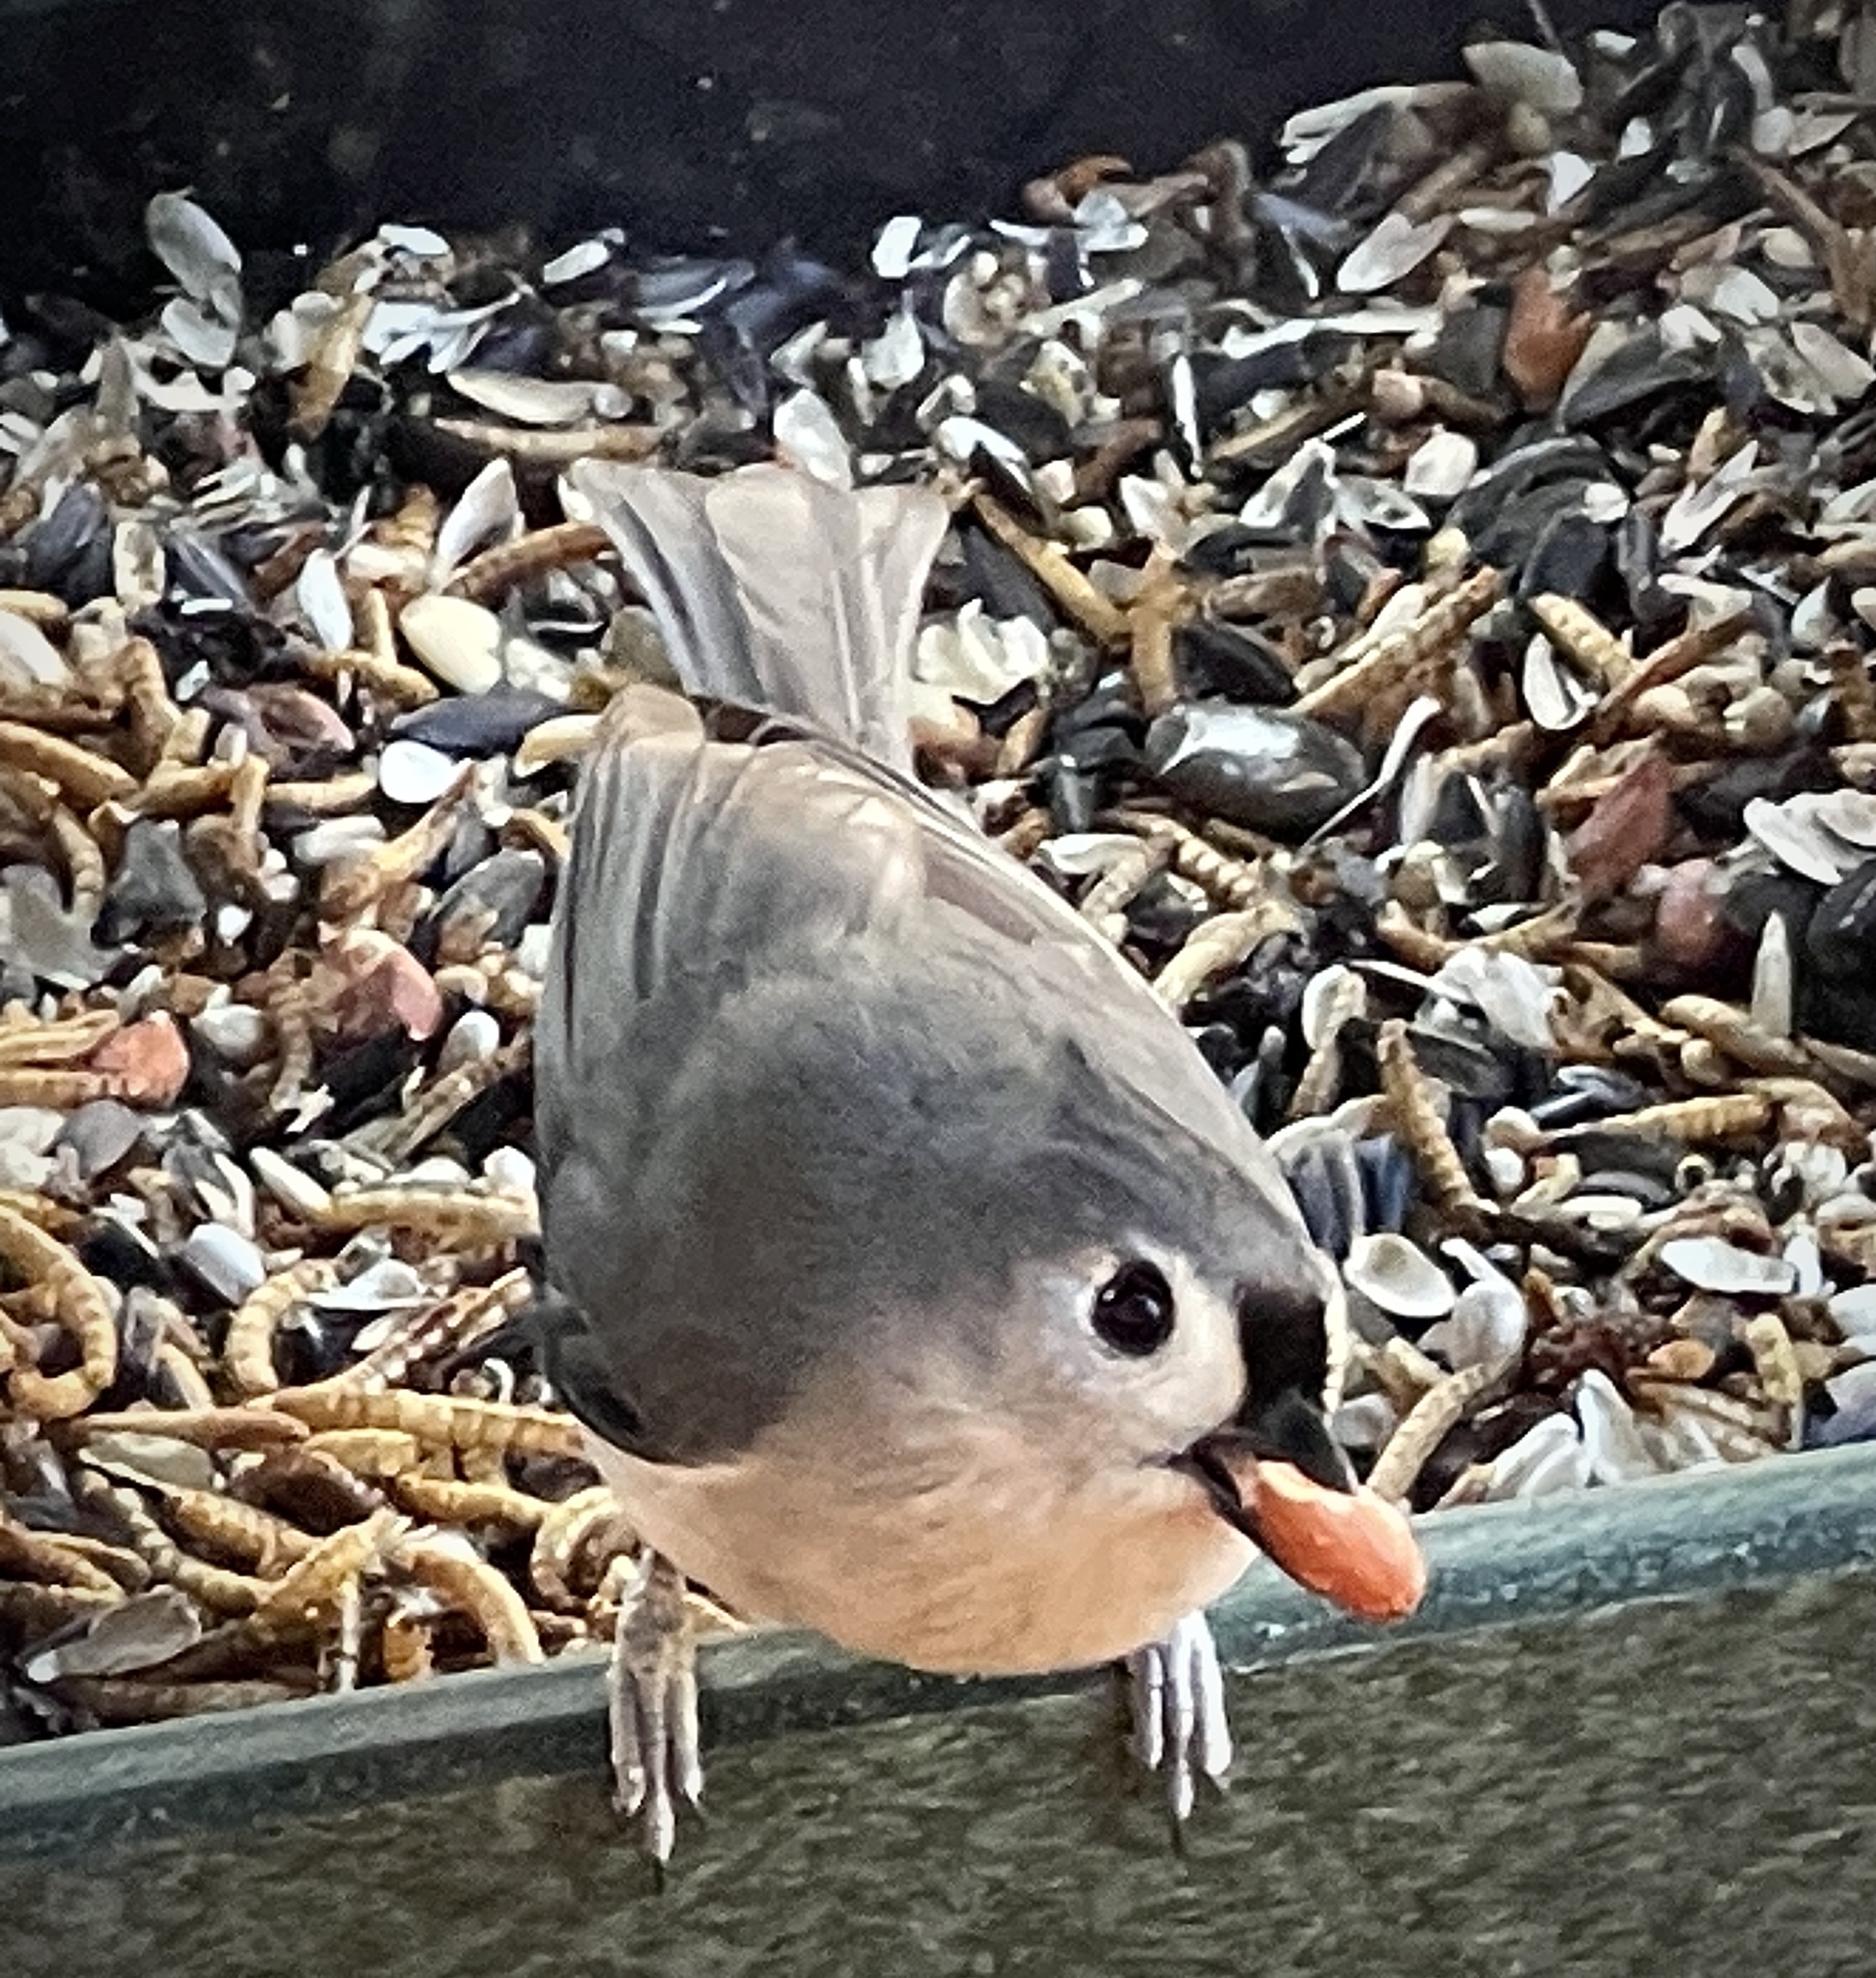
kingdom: Animalia
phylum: Chordata
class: Aves
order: Passeriformes
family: Paridae
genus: Baeolophus
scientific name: Baeolophus bicolor
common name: Tufted titmouse
